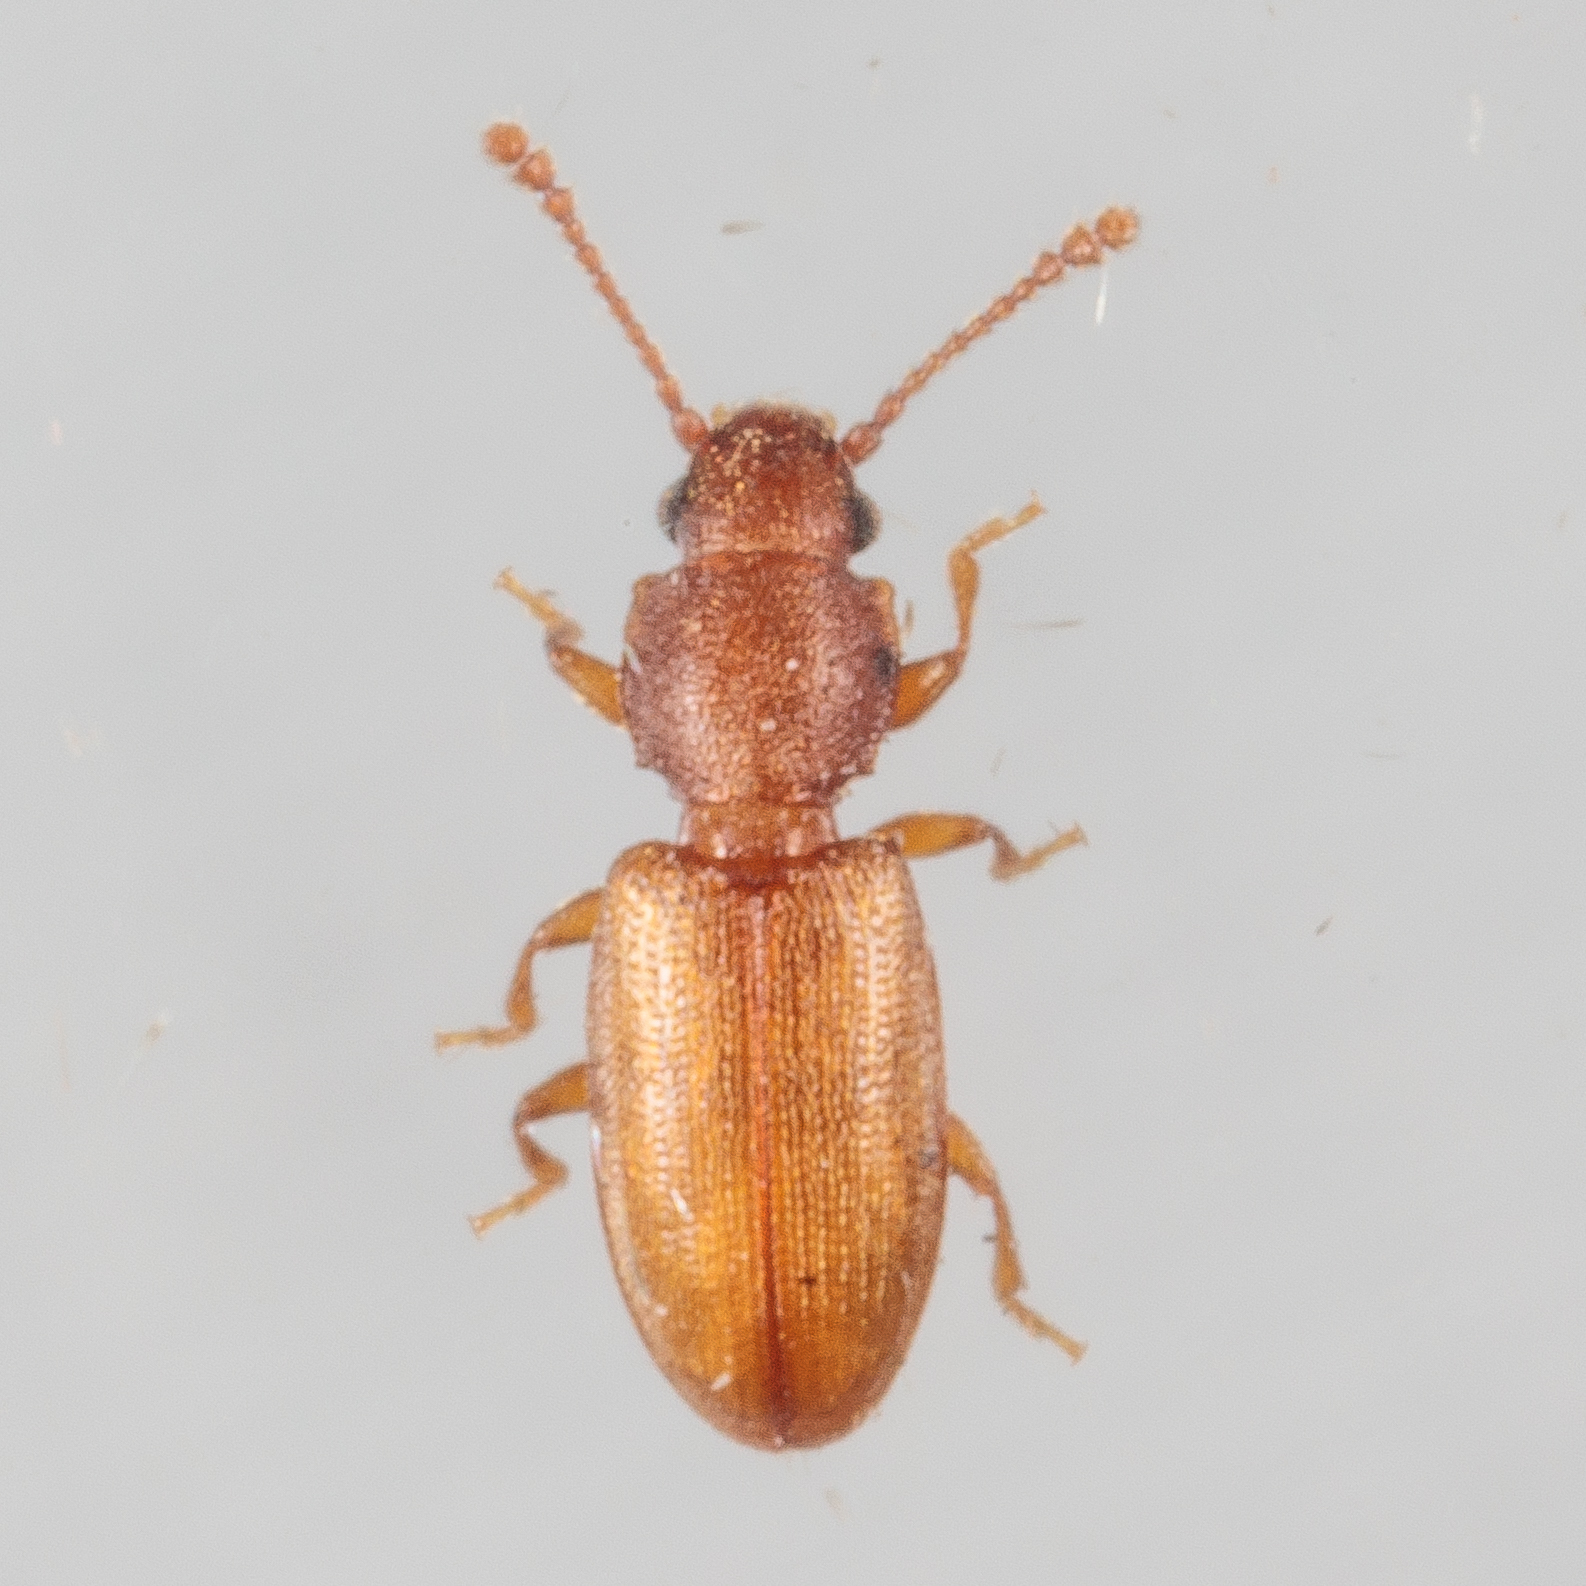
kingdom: Animalia
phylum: Arthropoda
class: Insecta
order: Coleoptera
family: Silvanidae
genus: Ahasverus
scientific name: Ahasverus rectus
